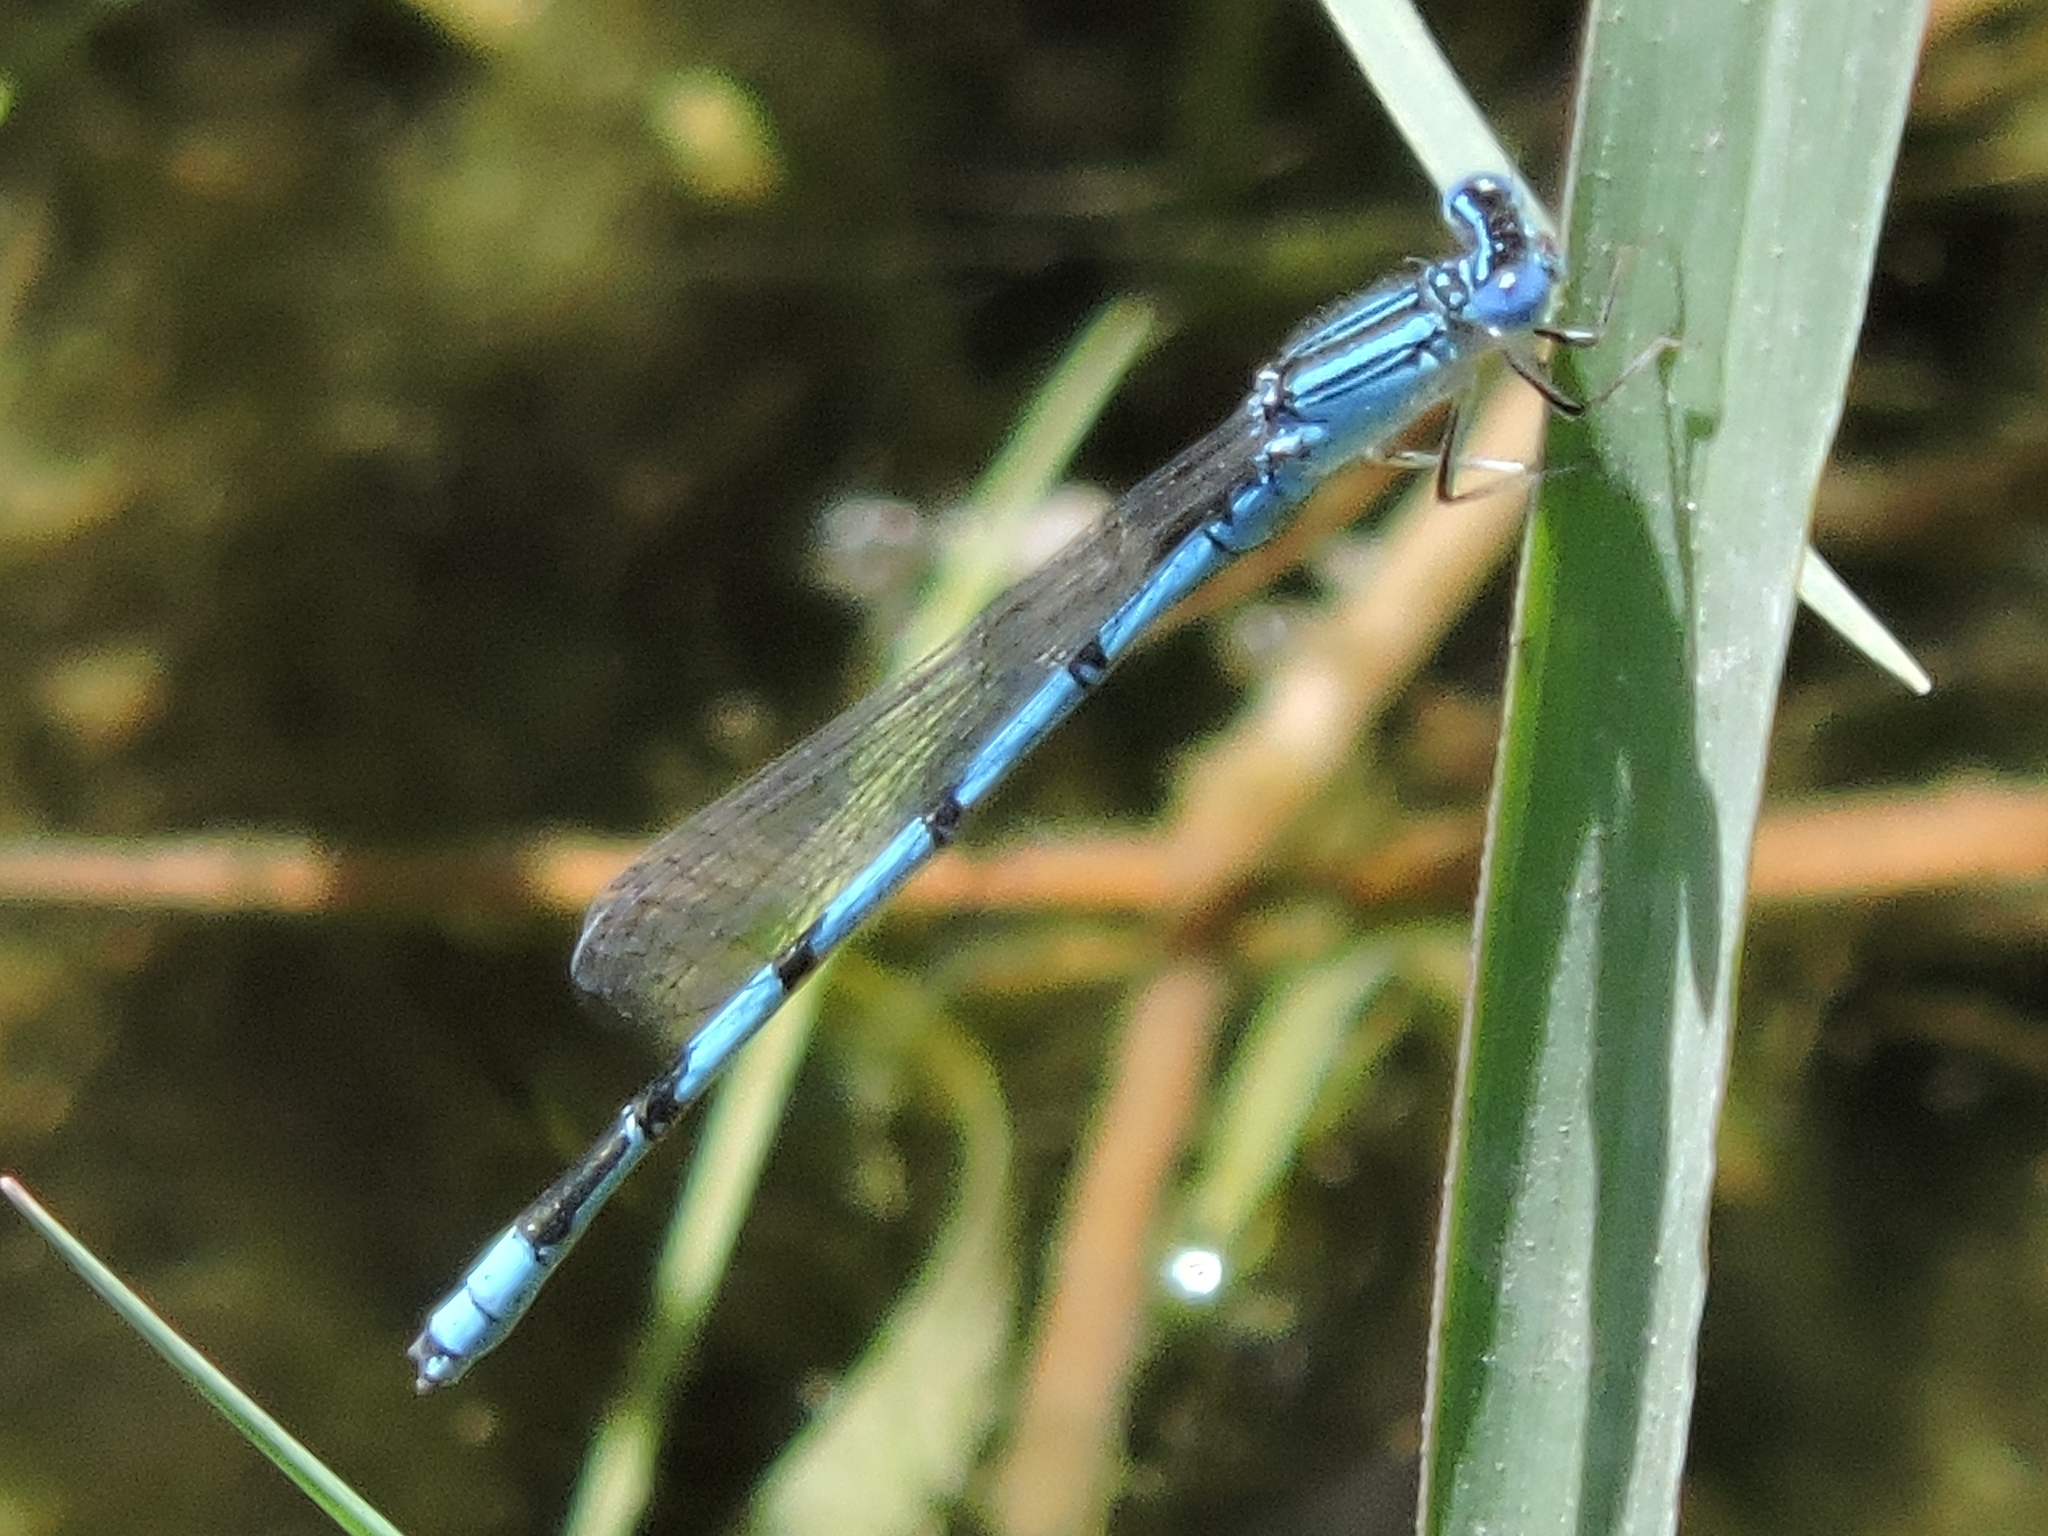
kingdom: Animalia
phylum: Arthropoda
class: Insecta
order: Odonata
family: Coenagrionidae
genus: Enallagma
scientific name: Enallagma basidens
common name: Double-striped bluet
